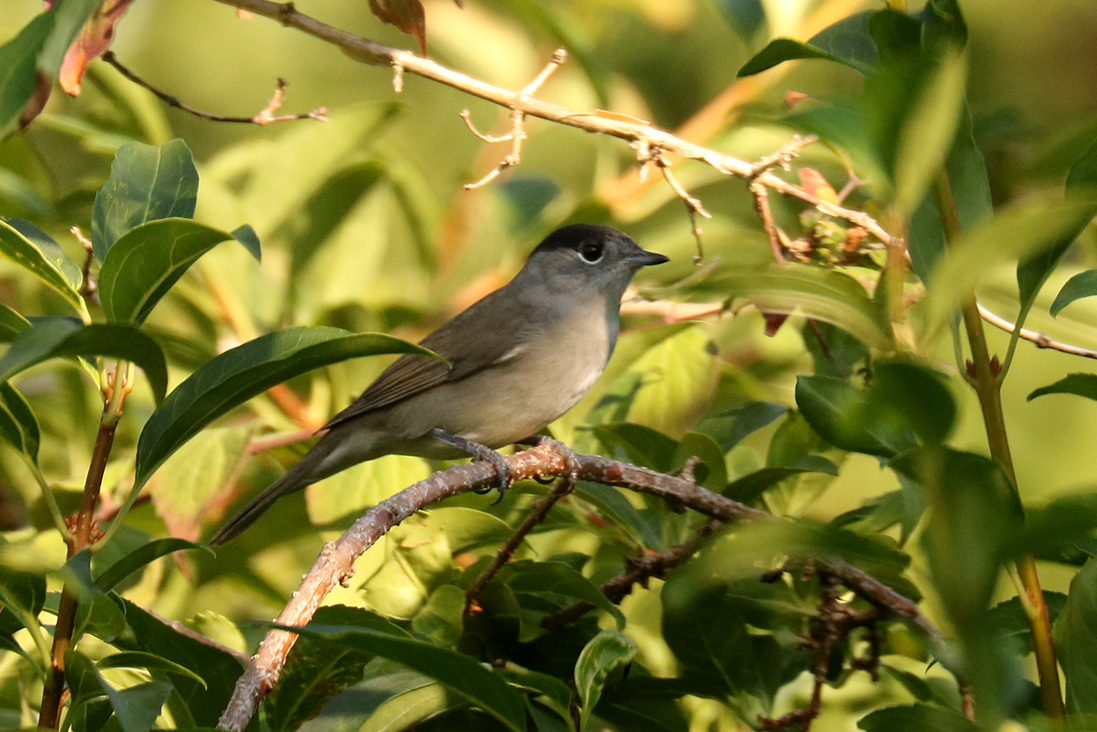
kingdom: Animalia
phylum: Chordata
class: Aves
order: Passeriformes
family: Sylviidae
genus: Sylvia
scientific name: Sylvia atricapilla
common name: Eurasian blackcap
